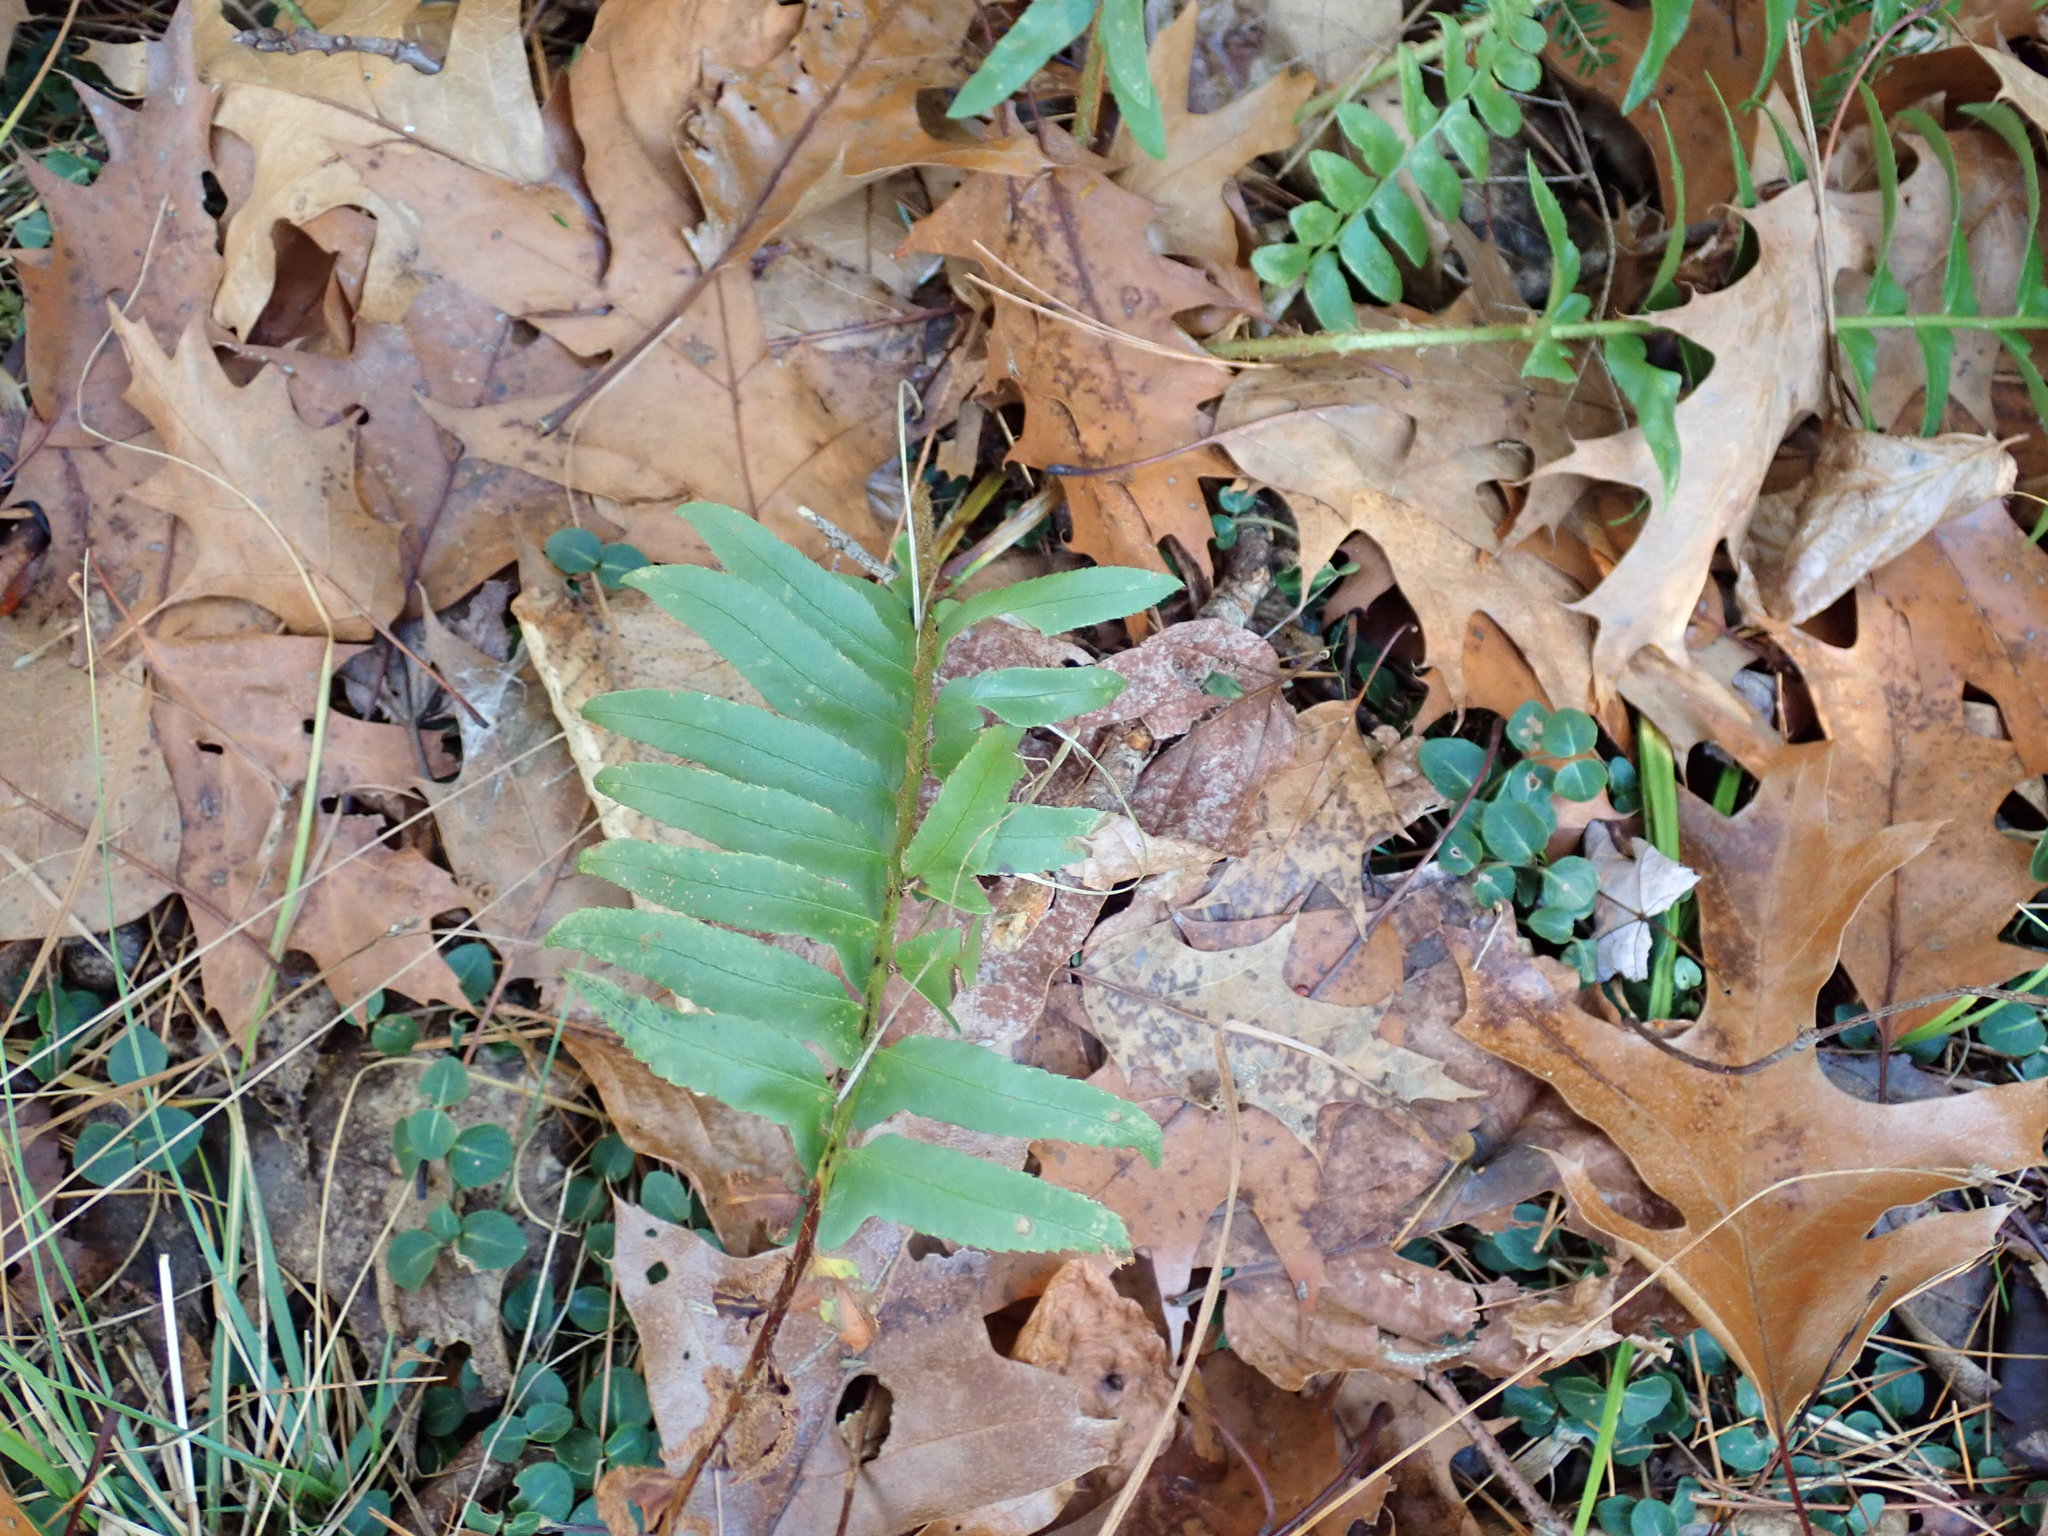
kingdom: Plantae
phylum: Tracheophyta
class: Polypodiopsida
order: Polypodiales
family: Dryopteridaceae
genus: Polystichum
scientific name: Polystichum acrostichoides
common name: Christmas fern
